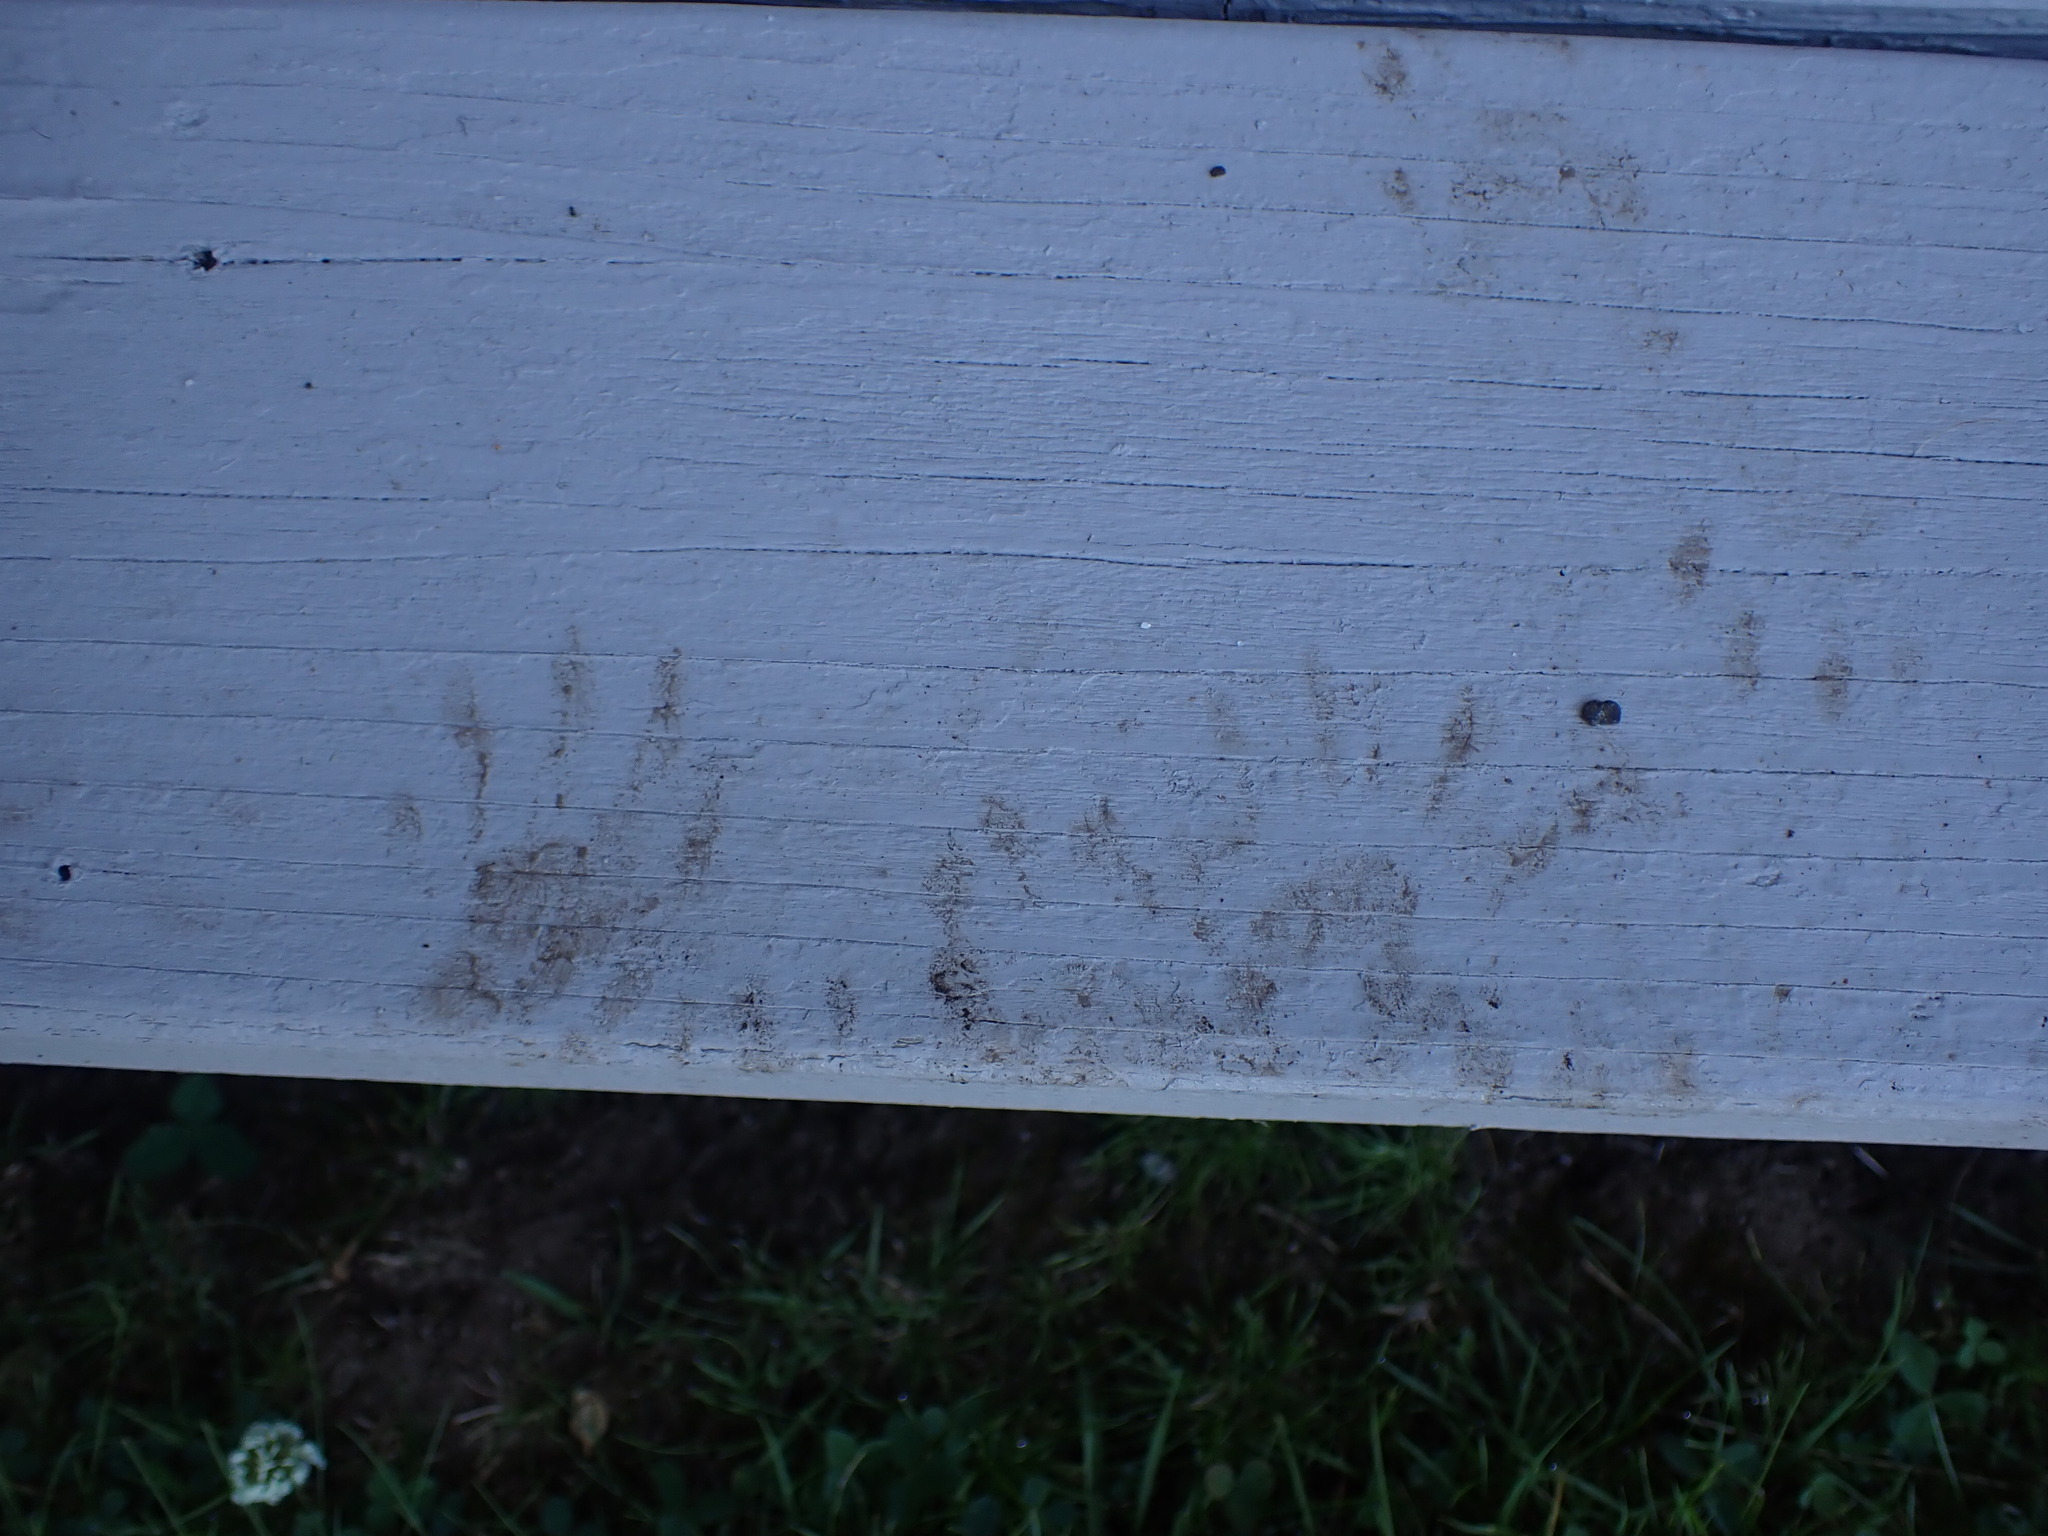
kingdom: Animalia
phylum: Chordata
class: Mammalia
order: Carnivora
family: Procyonidae
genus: Procyon
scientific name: Procyon lotor
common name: Raccoon
